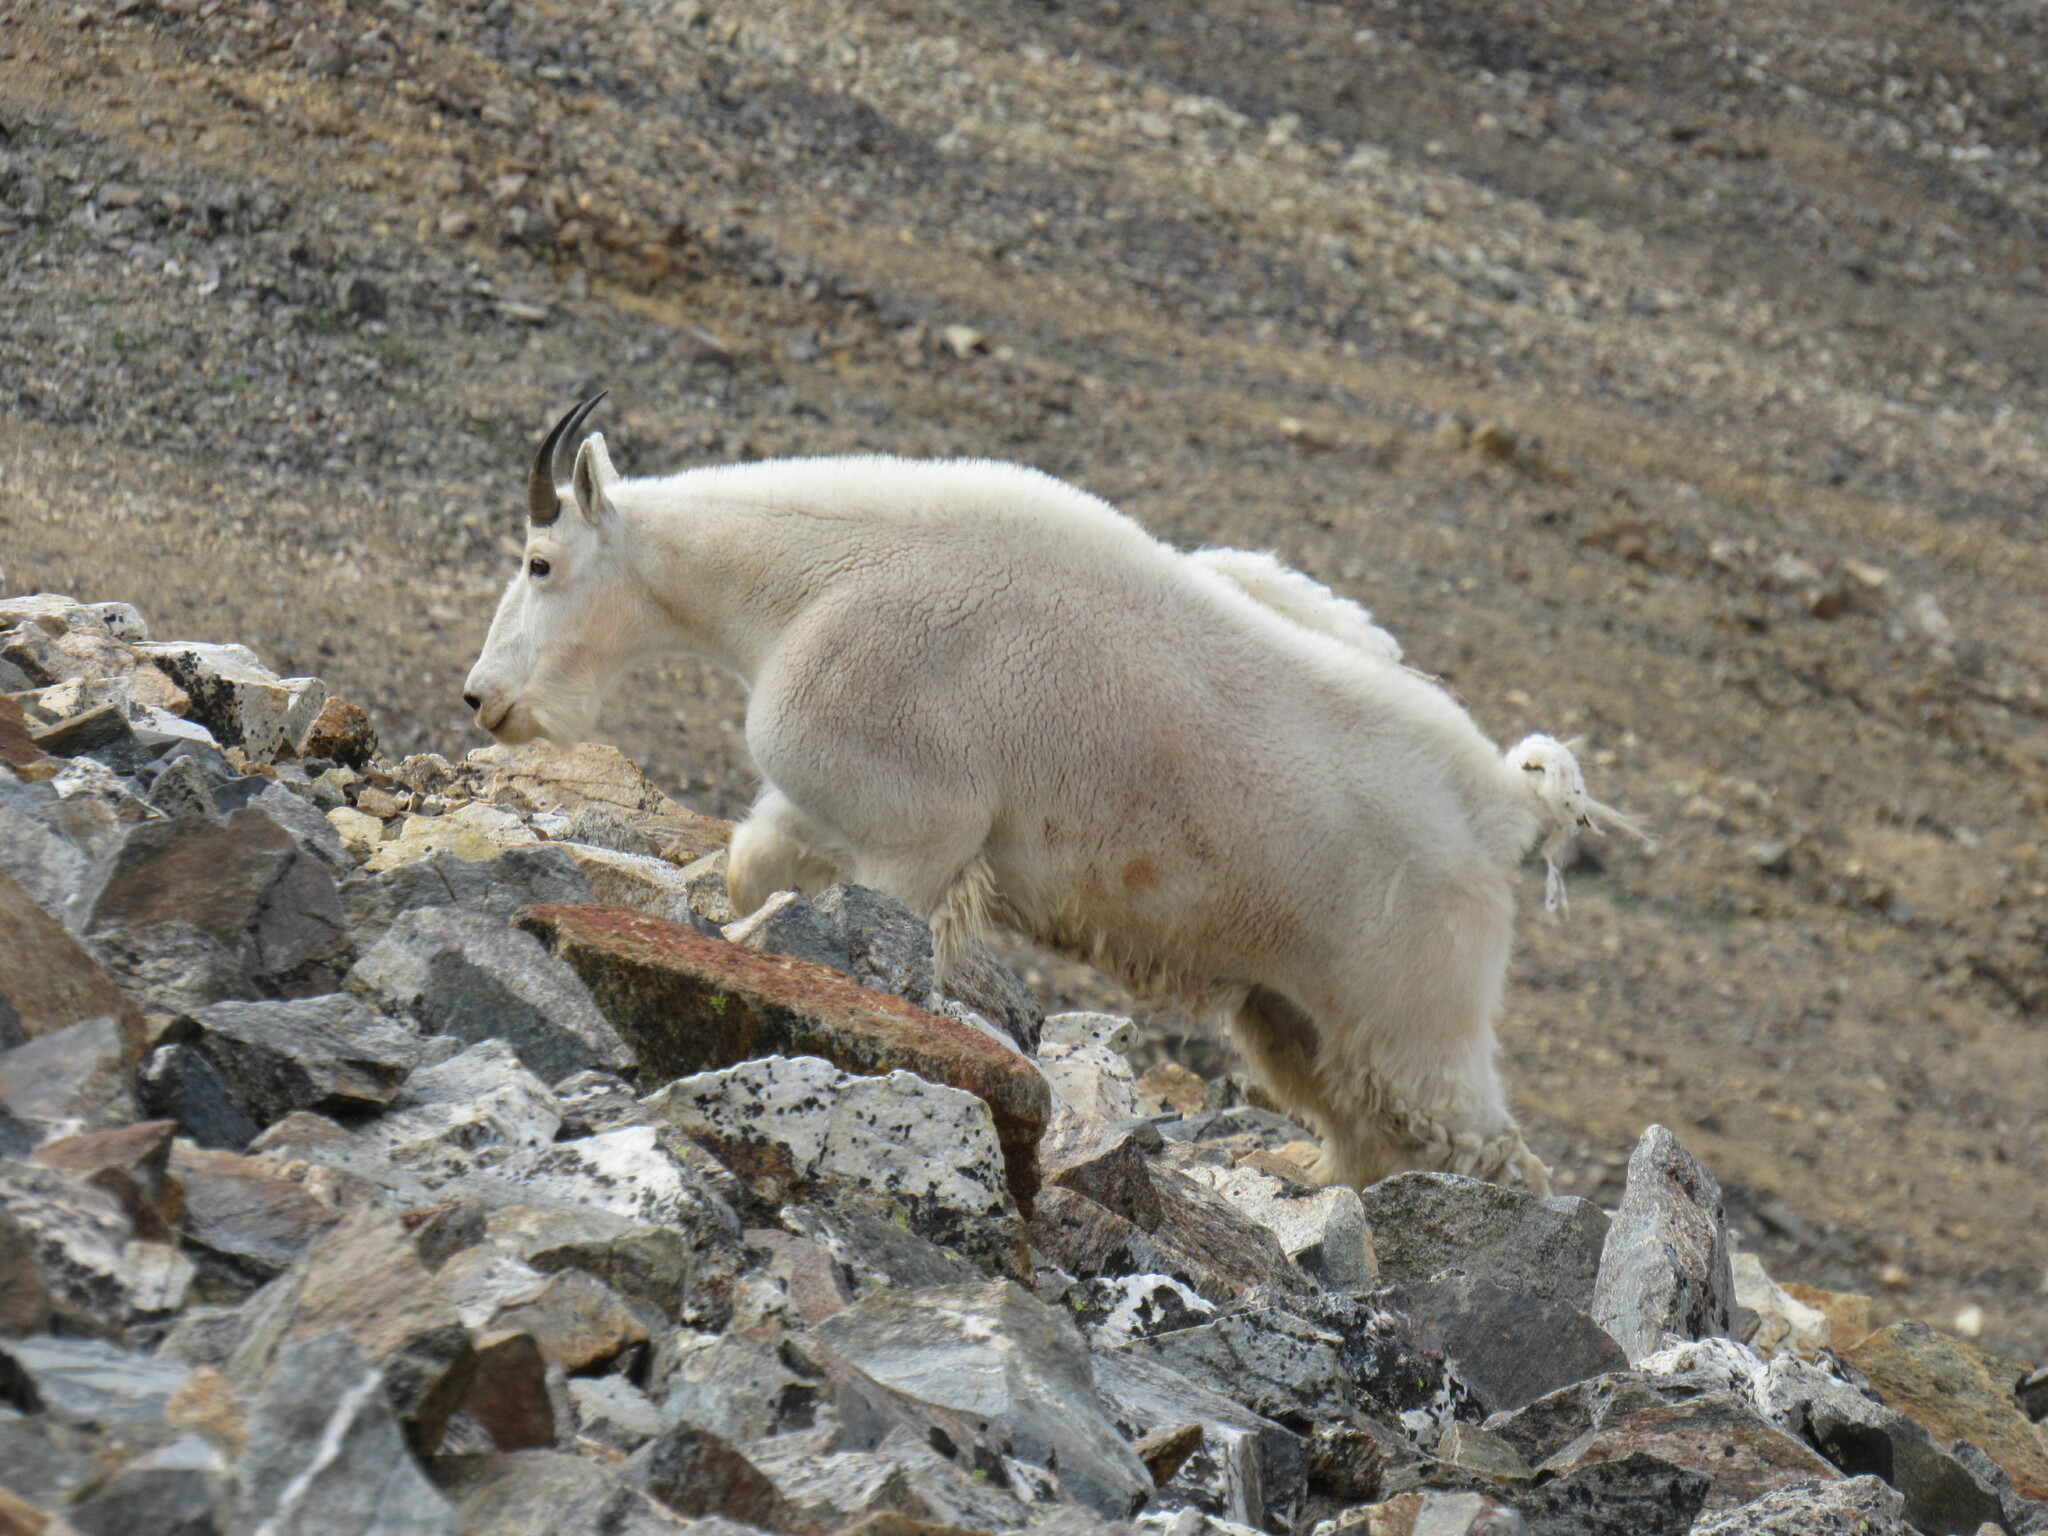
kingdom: Animalia
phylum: Chordata
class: Mammalia
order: Artiodactyla
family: Bovidae
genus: Oreamnos
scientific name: Oreamnos americanus
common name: Mountain goat
